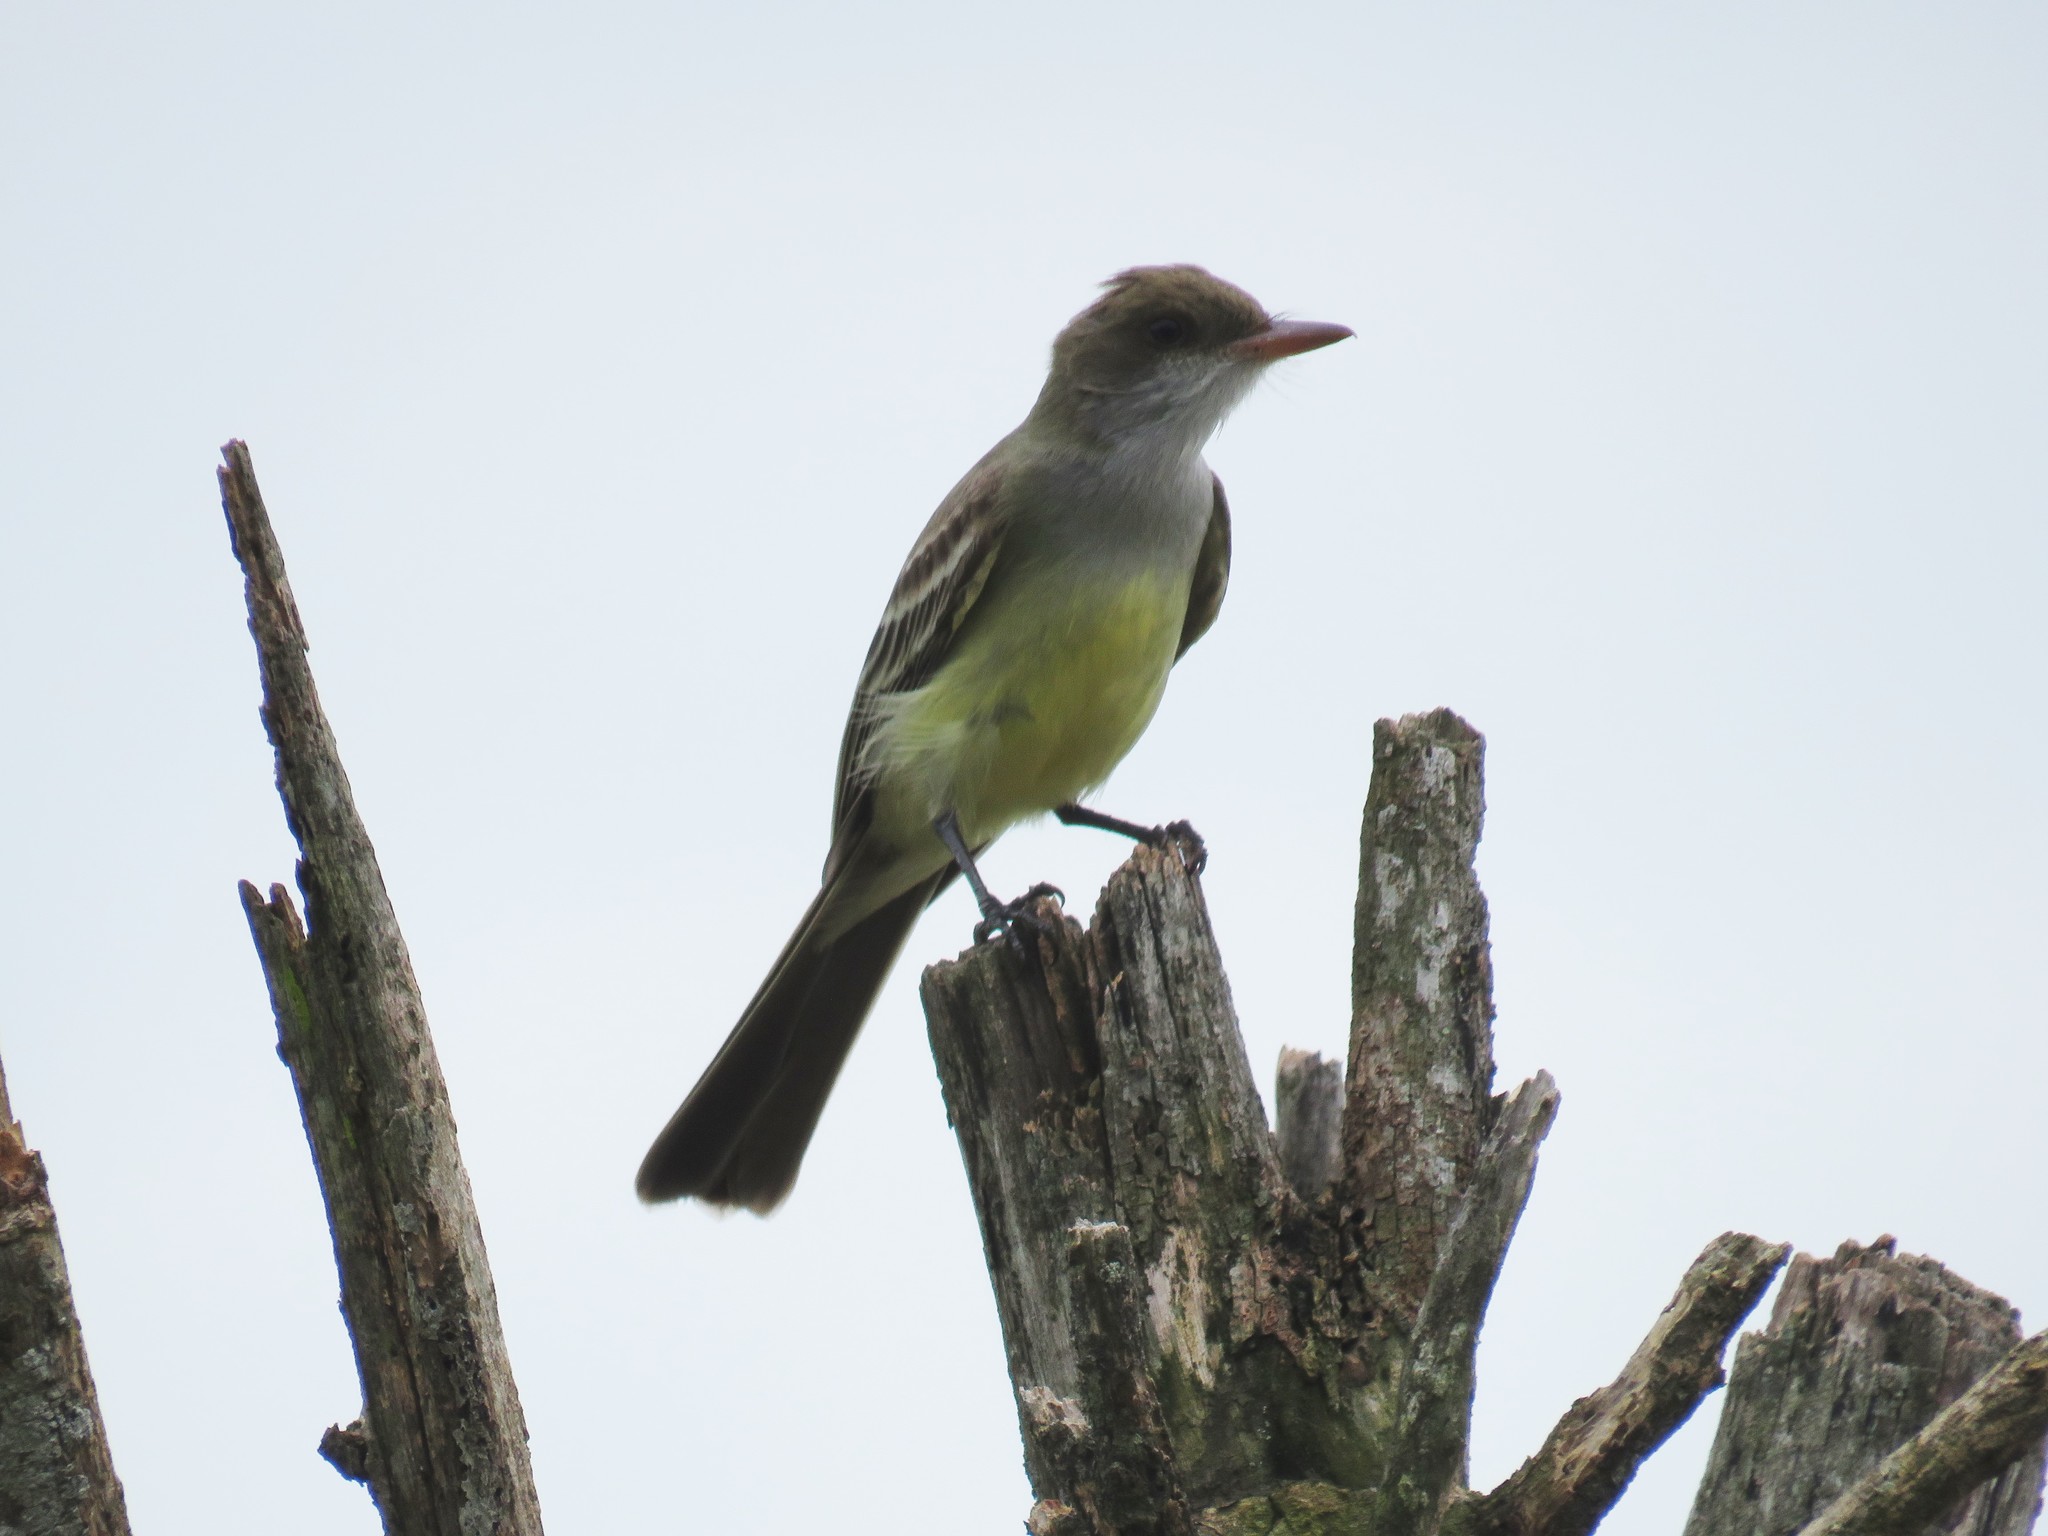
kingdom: Animalia
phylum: Chordata
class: Aves
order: Passeriformes
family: Tyrannidae
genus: Myiarchus
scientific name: Myiarchus swainsoni
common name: Swainson's flycatcher
